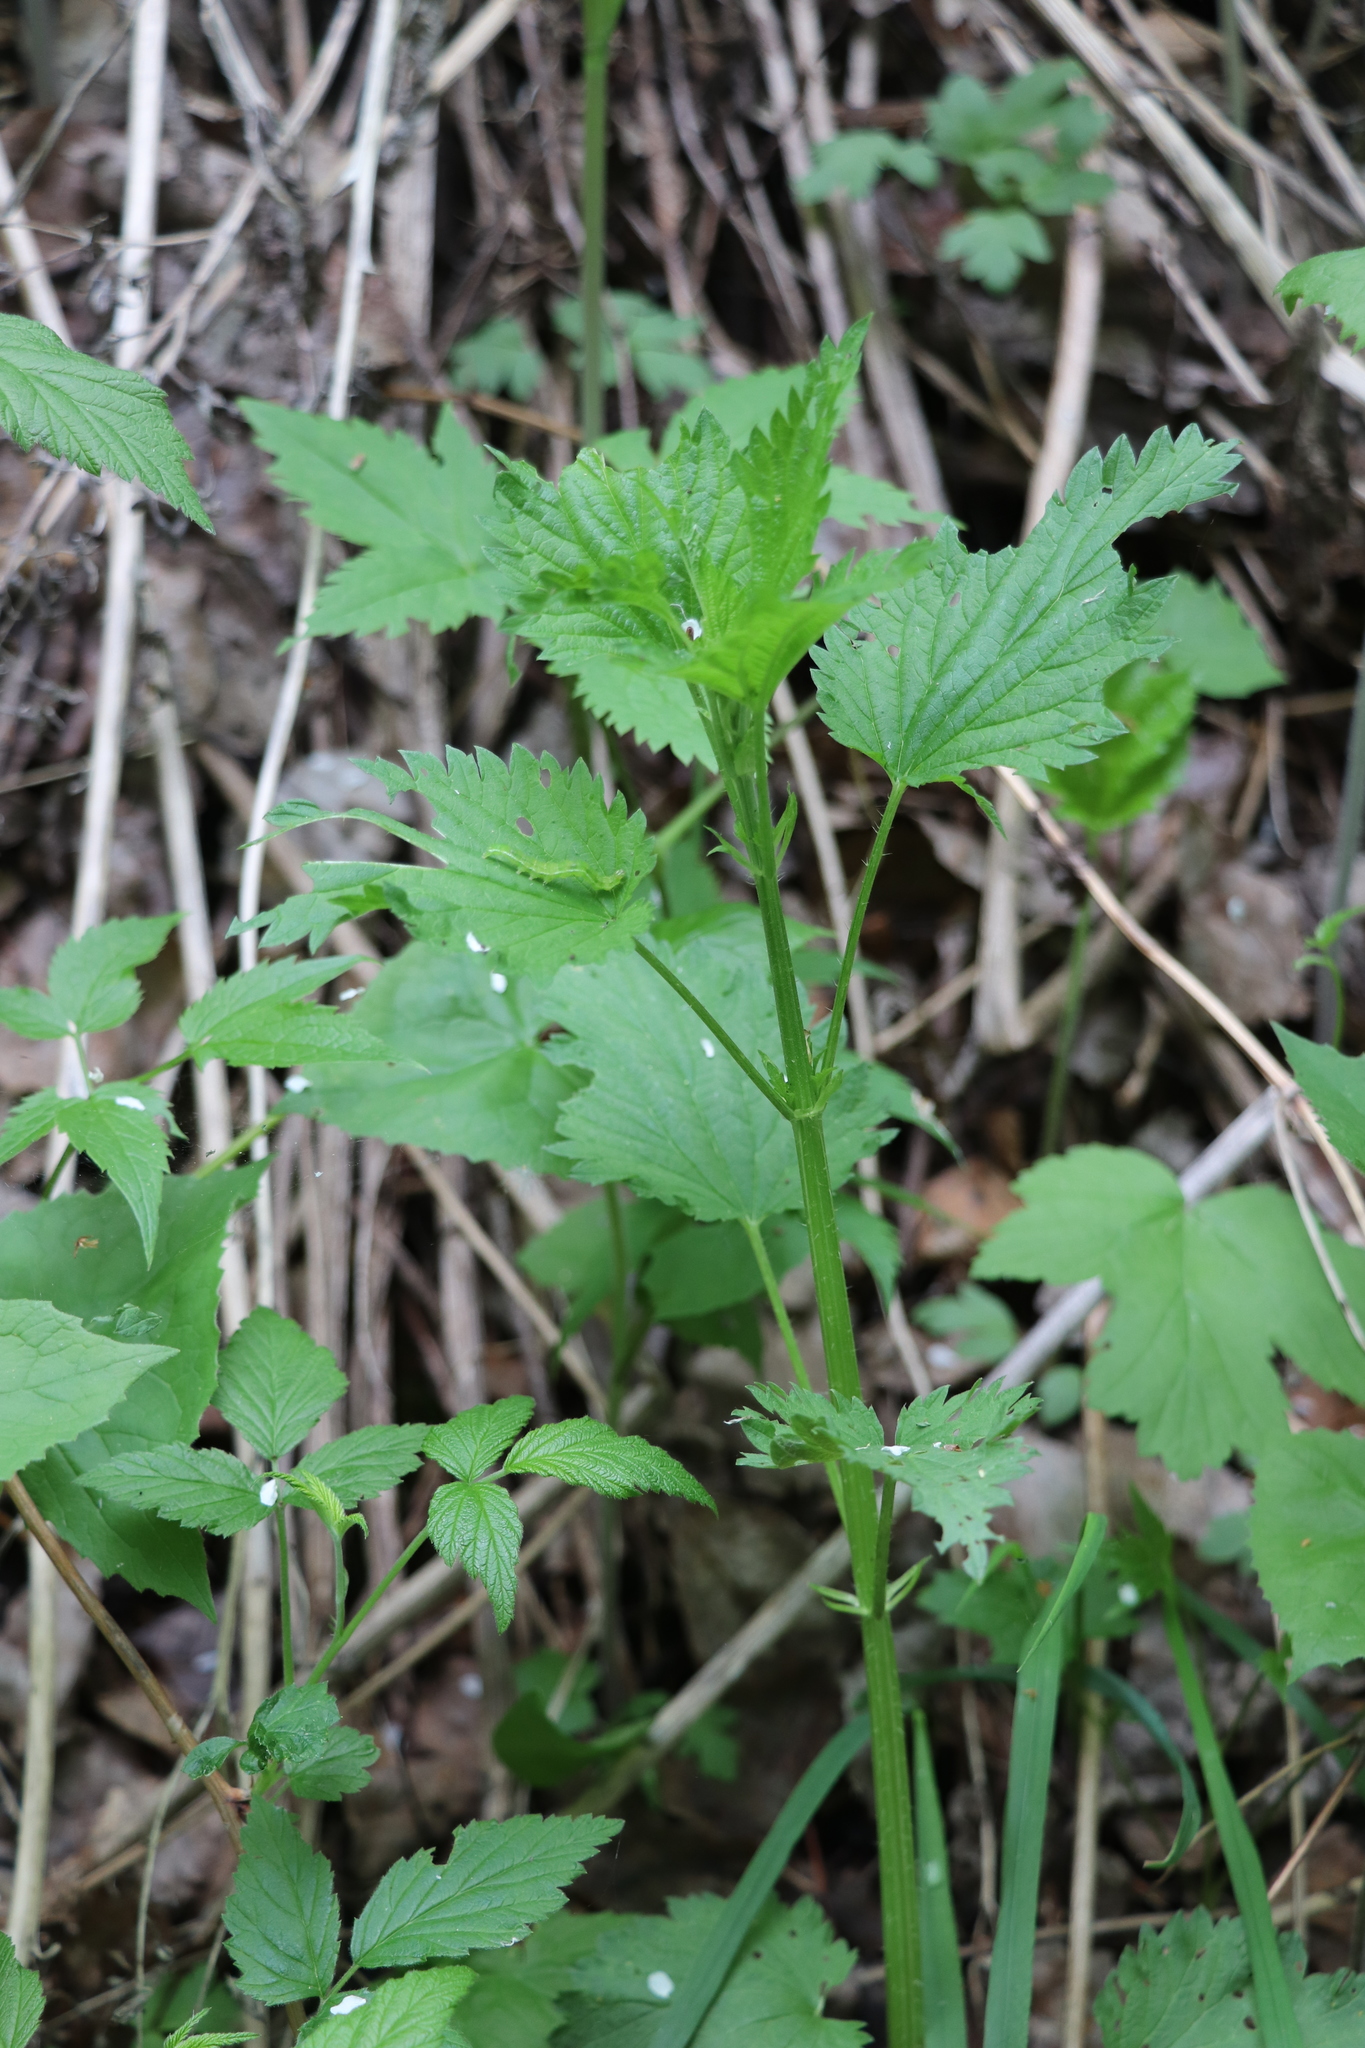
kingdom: Plantae
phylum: Tracheophyta
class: Magnoliopsida
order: Rosales
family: Urticaceae
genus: Urtica
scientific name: Urtica dioica
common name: Common nettle
